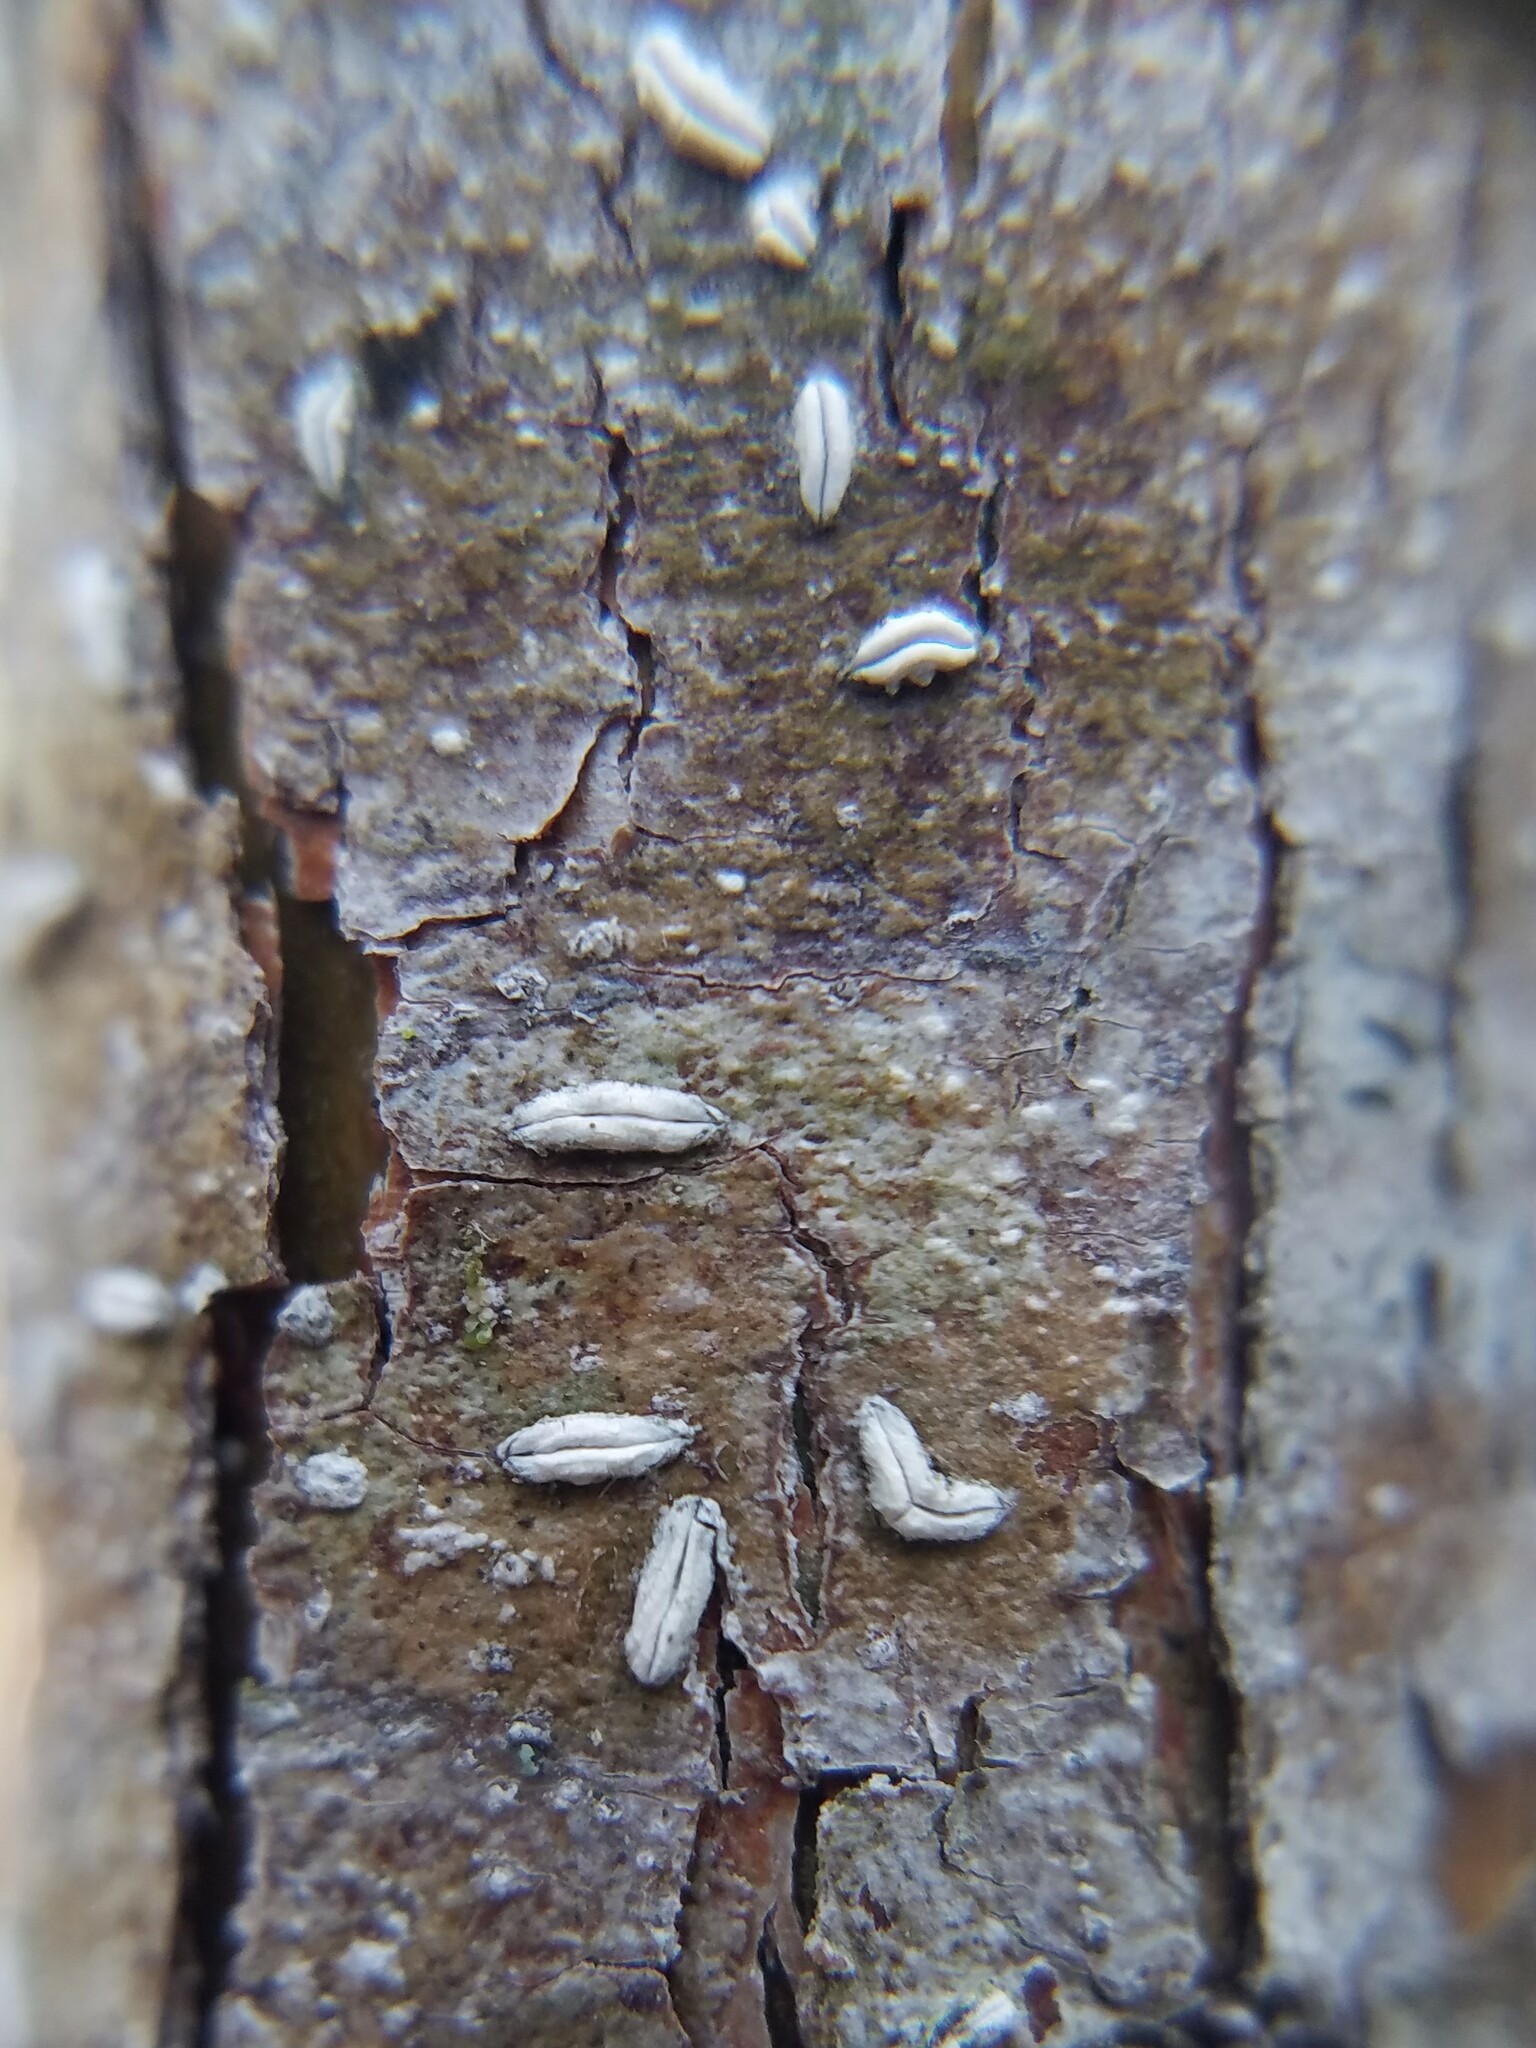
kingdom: Fungi
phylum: Ascomycota
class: Lecanoromycetes
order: Ostropales
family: Graphidaceae
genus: Dyplolabia
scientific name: Dyplolabia afzelii
